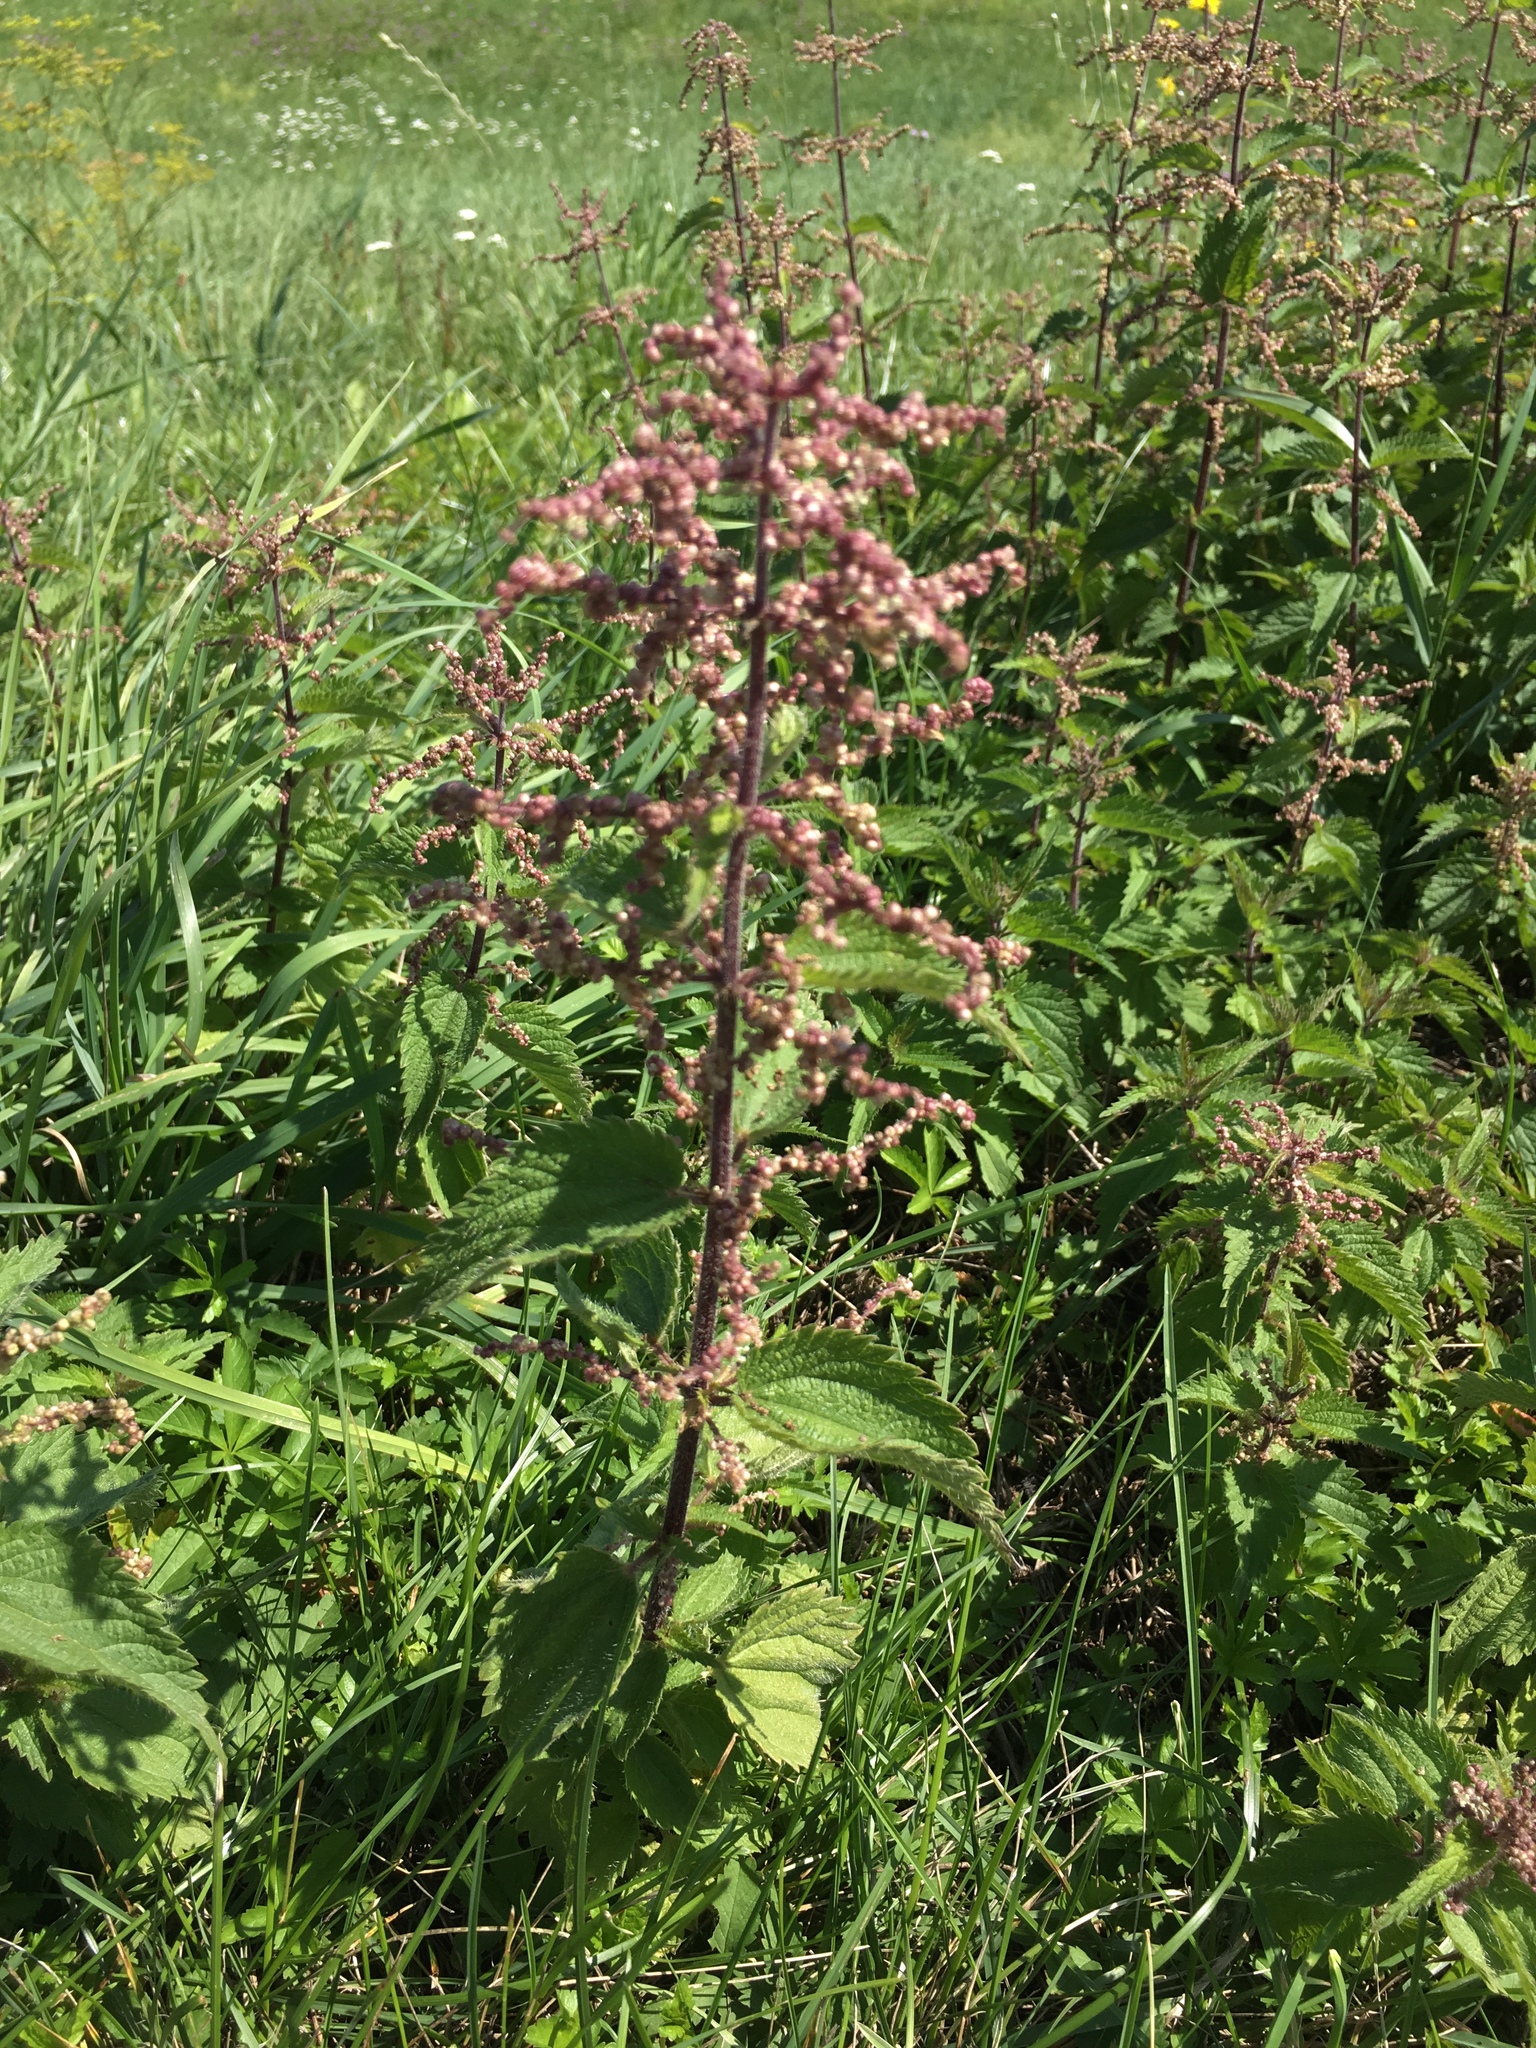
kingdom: Plantae
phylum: Tracheophyta
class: Magnoliopsida
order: Rosales
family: Urticaceae
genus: Urtica
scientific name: Urtica dioica
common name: Common nettle
